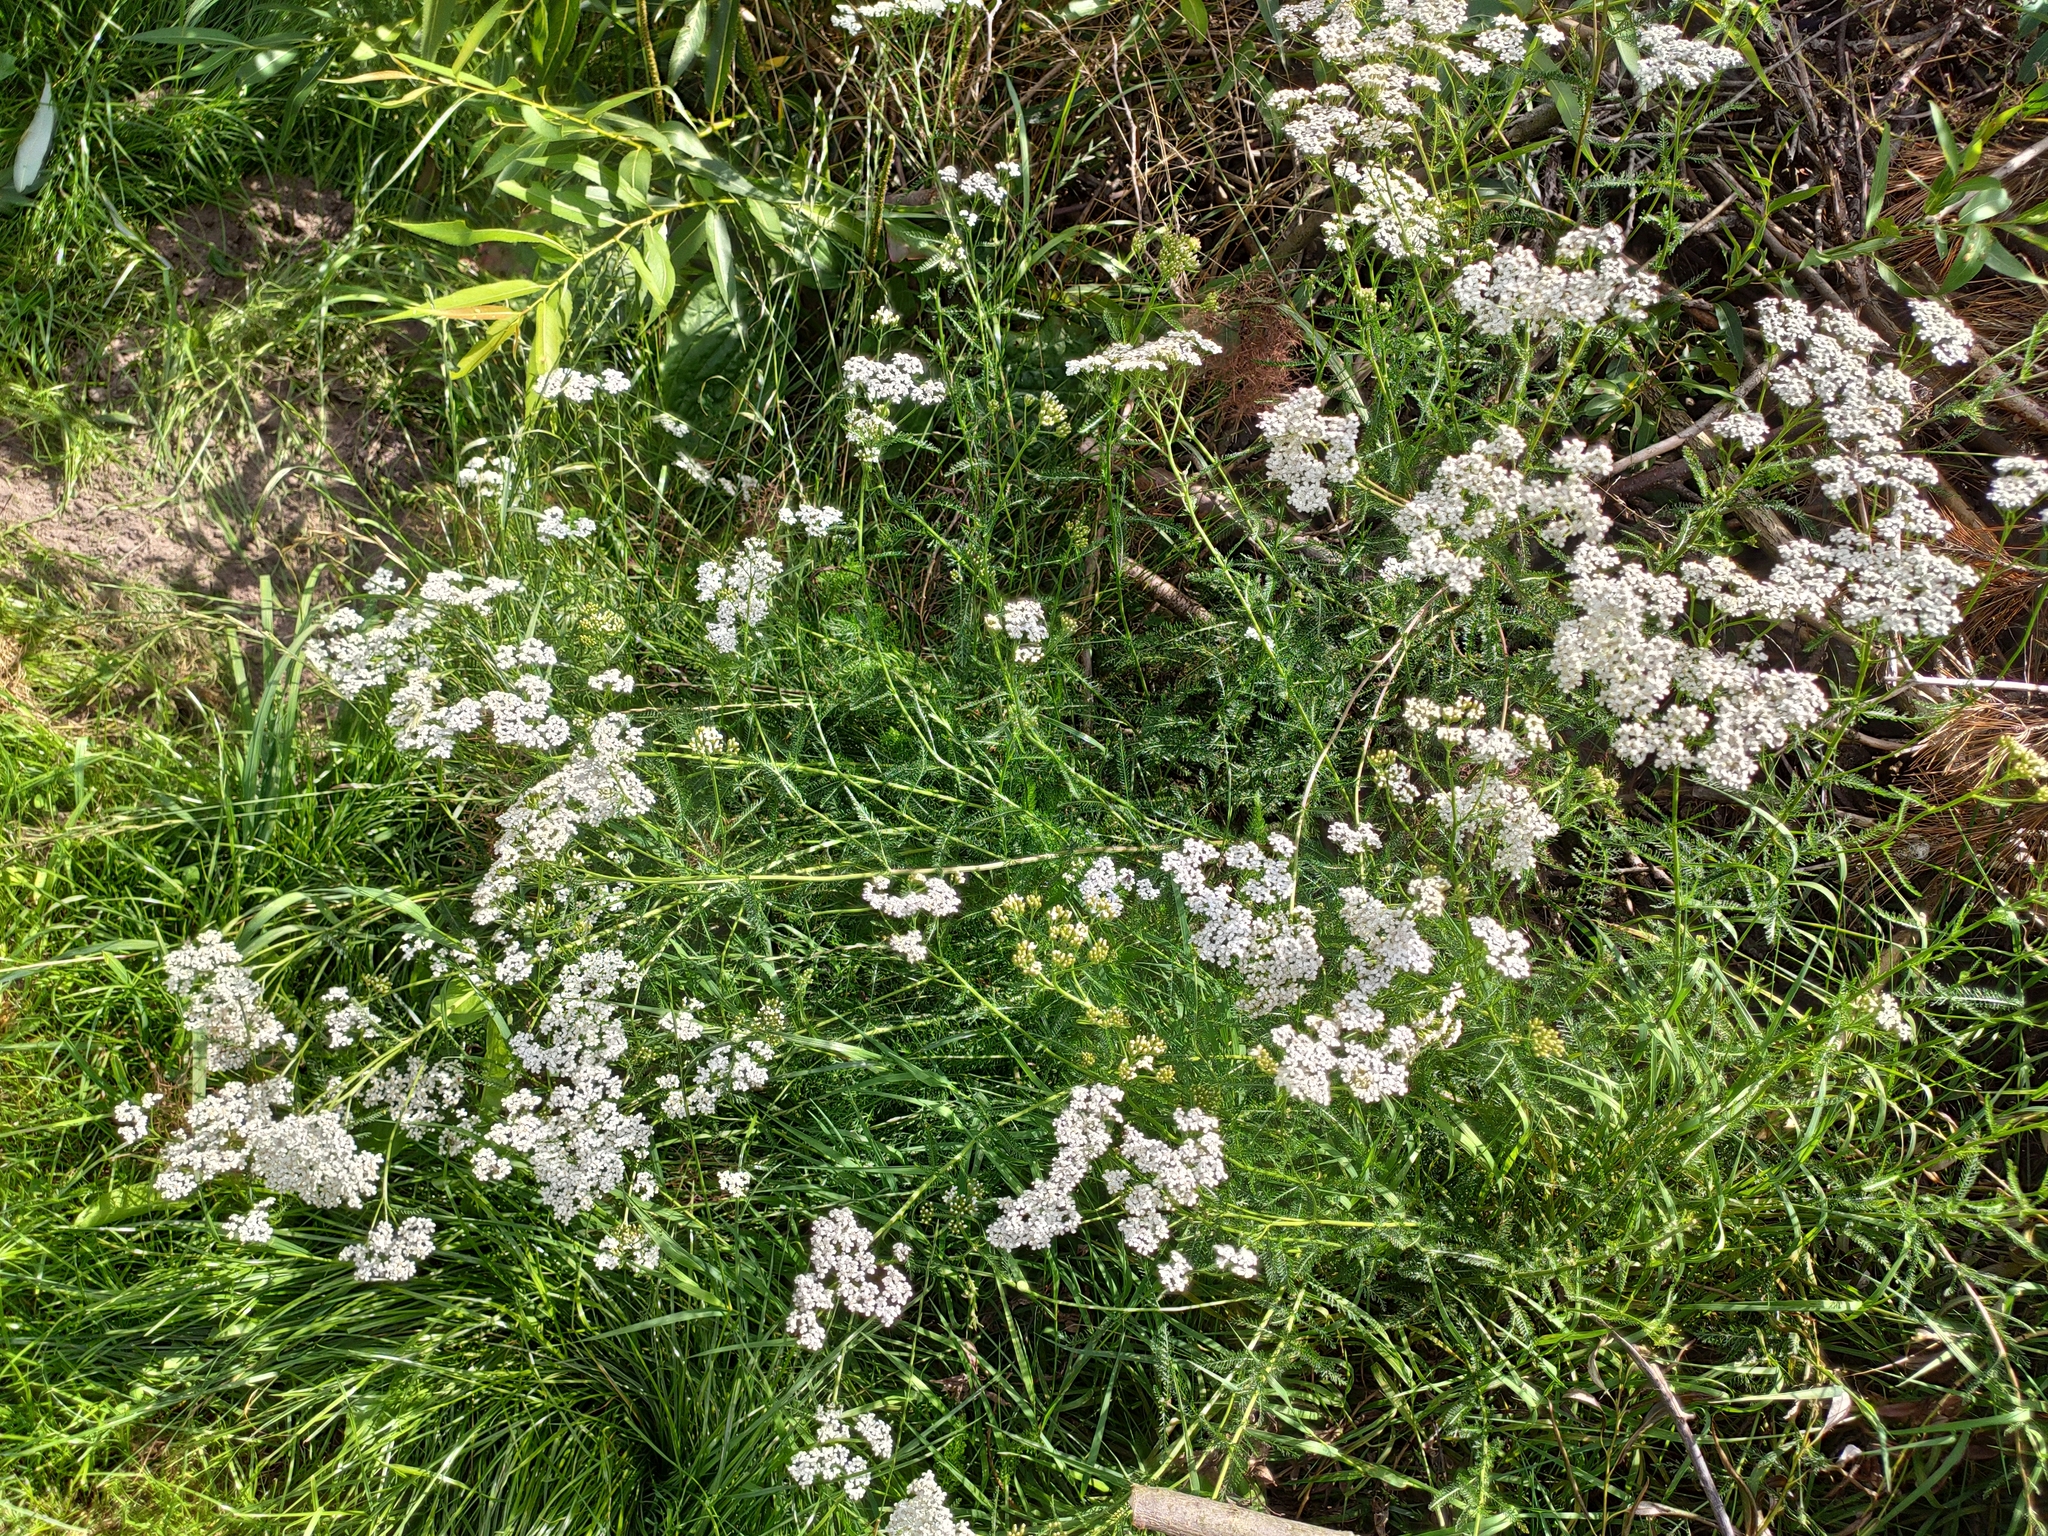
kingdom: Plantae
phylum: Tracheophyta
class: Magnoliopsida
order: Asterales
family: Asteraceae
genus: Achillea
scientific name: Achillea millefolium
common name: Yarrow
